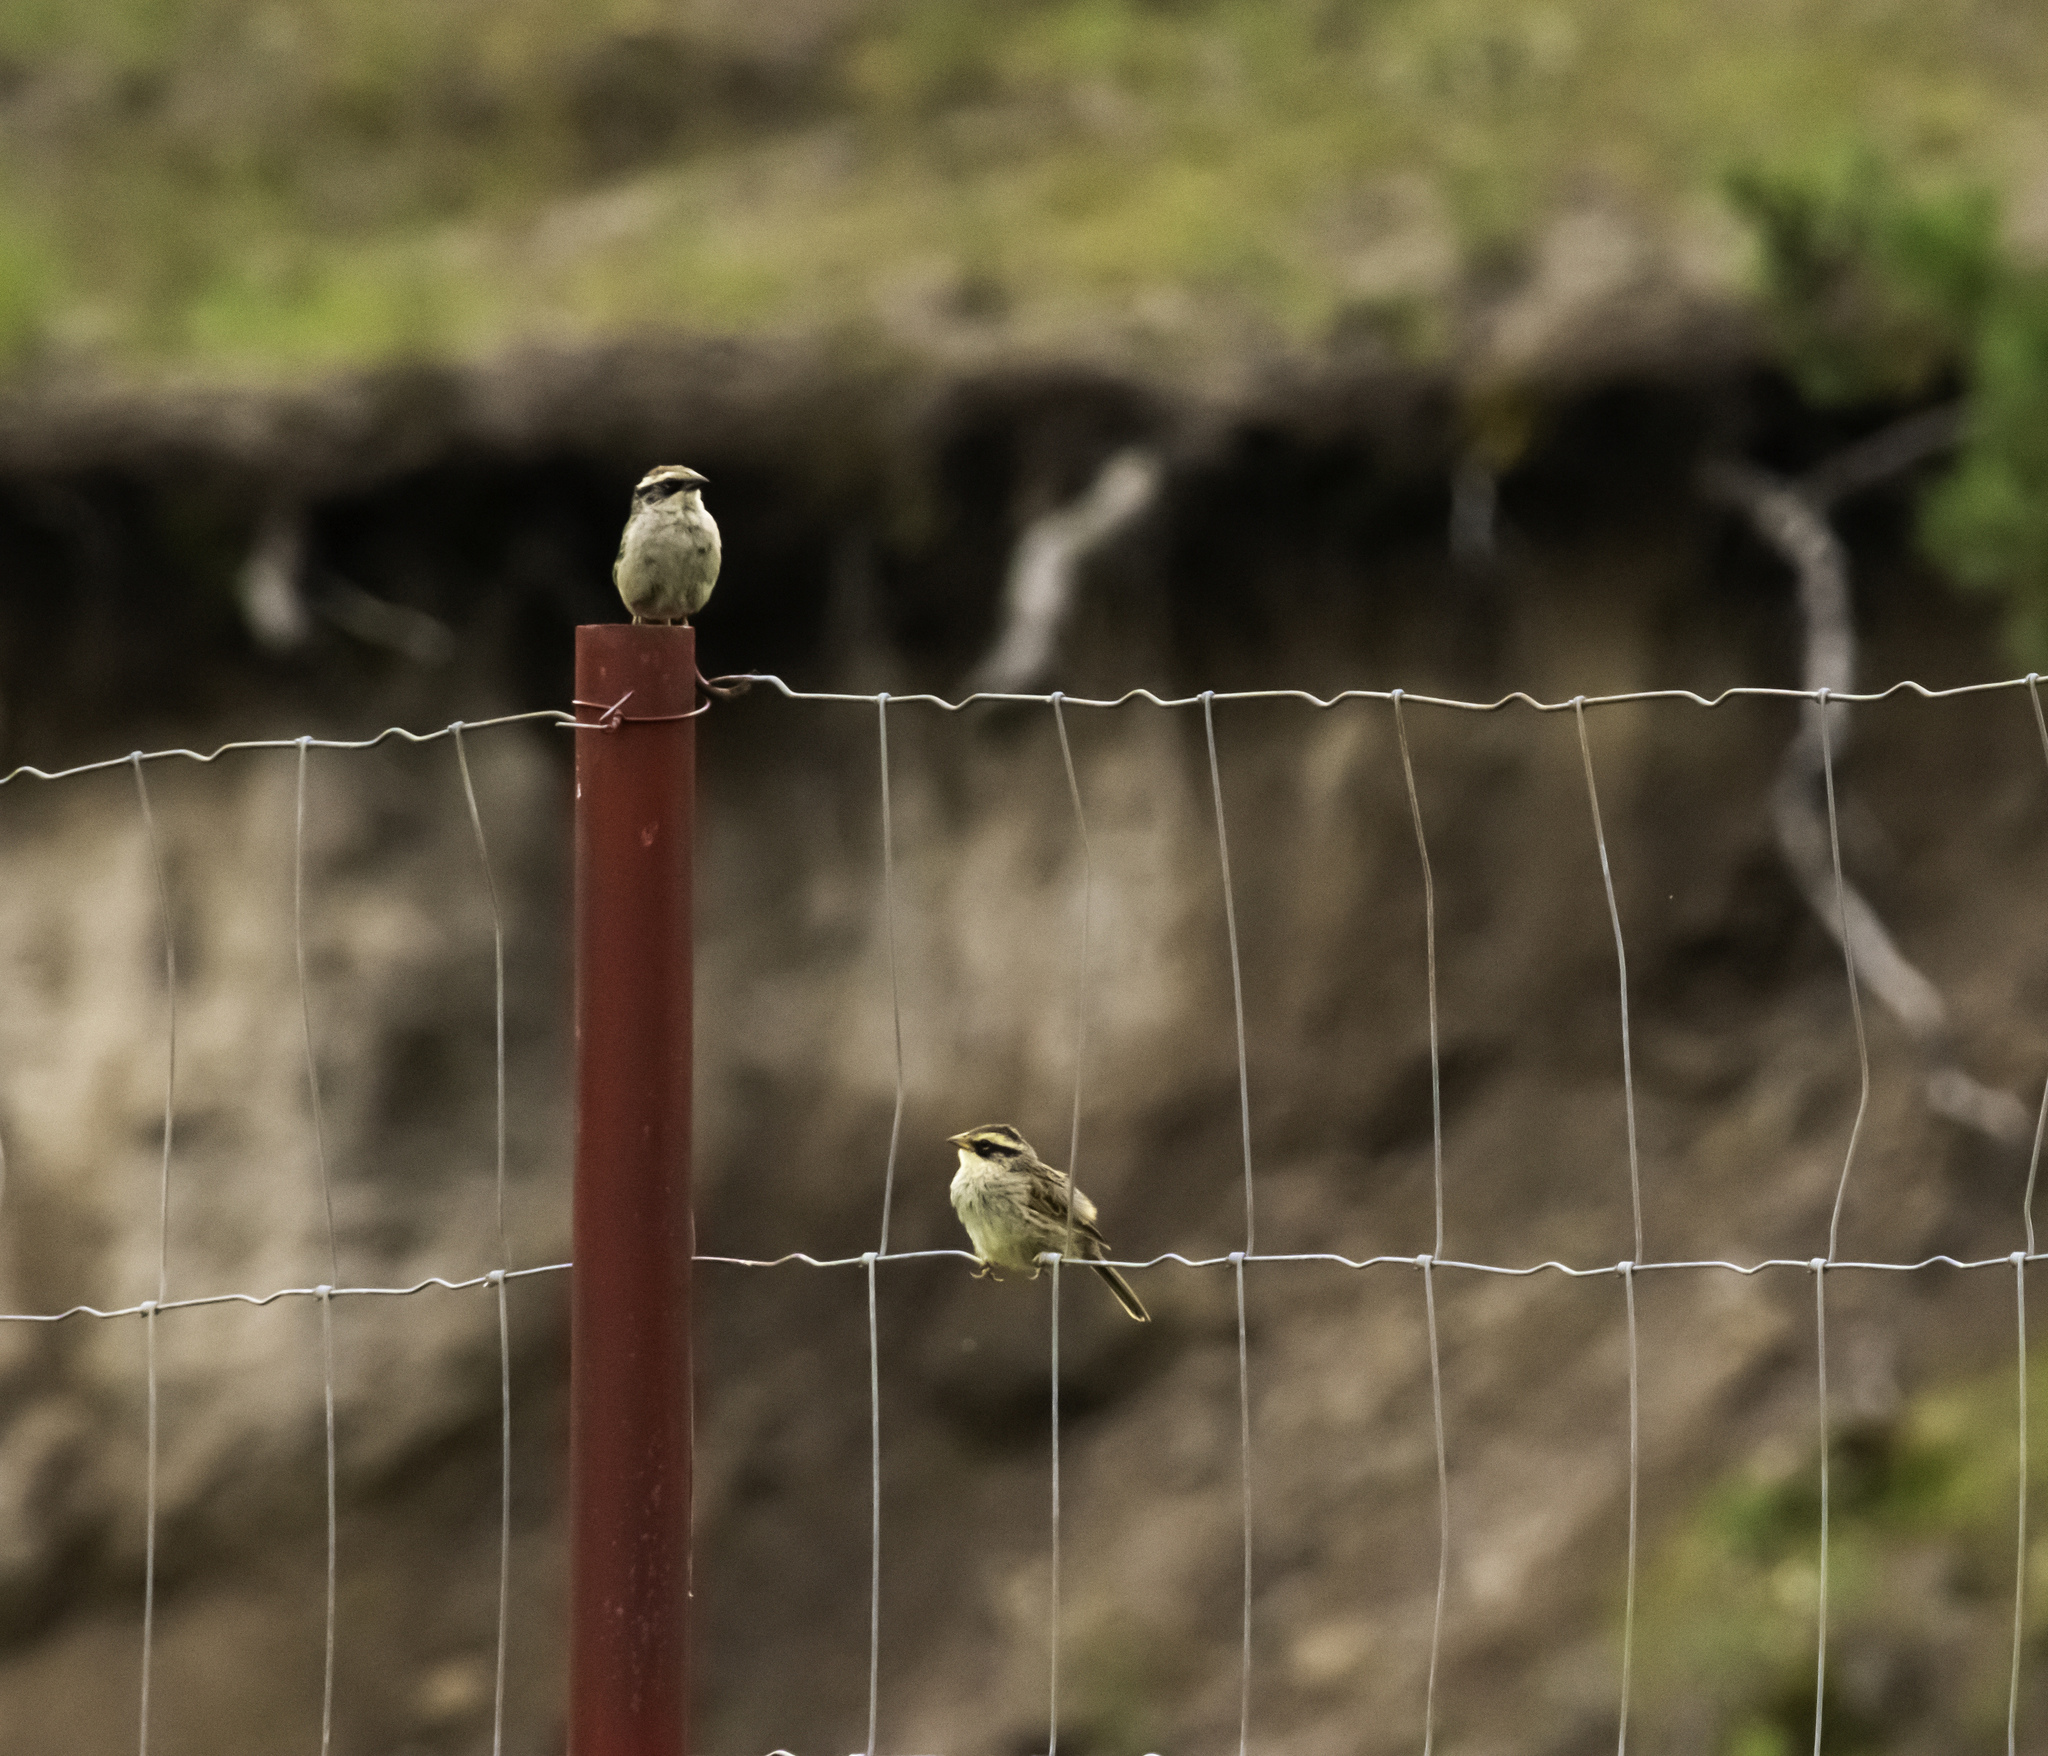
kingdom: Animalia
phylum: Chordata
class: Aves
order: Passeriformes
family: Passerellidae
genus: Oriturus
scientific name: Oriturus superciliosus
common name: Striped sparrow
